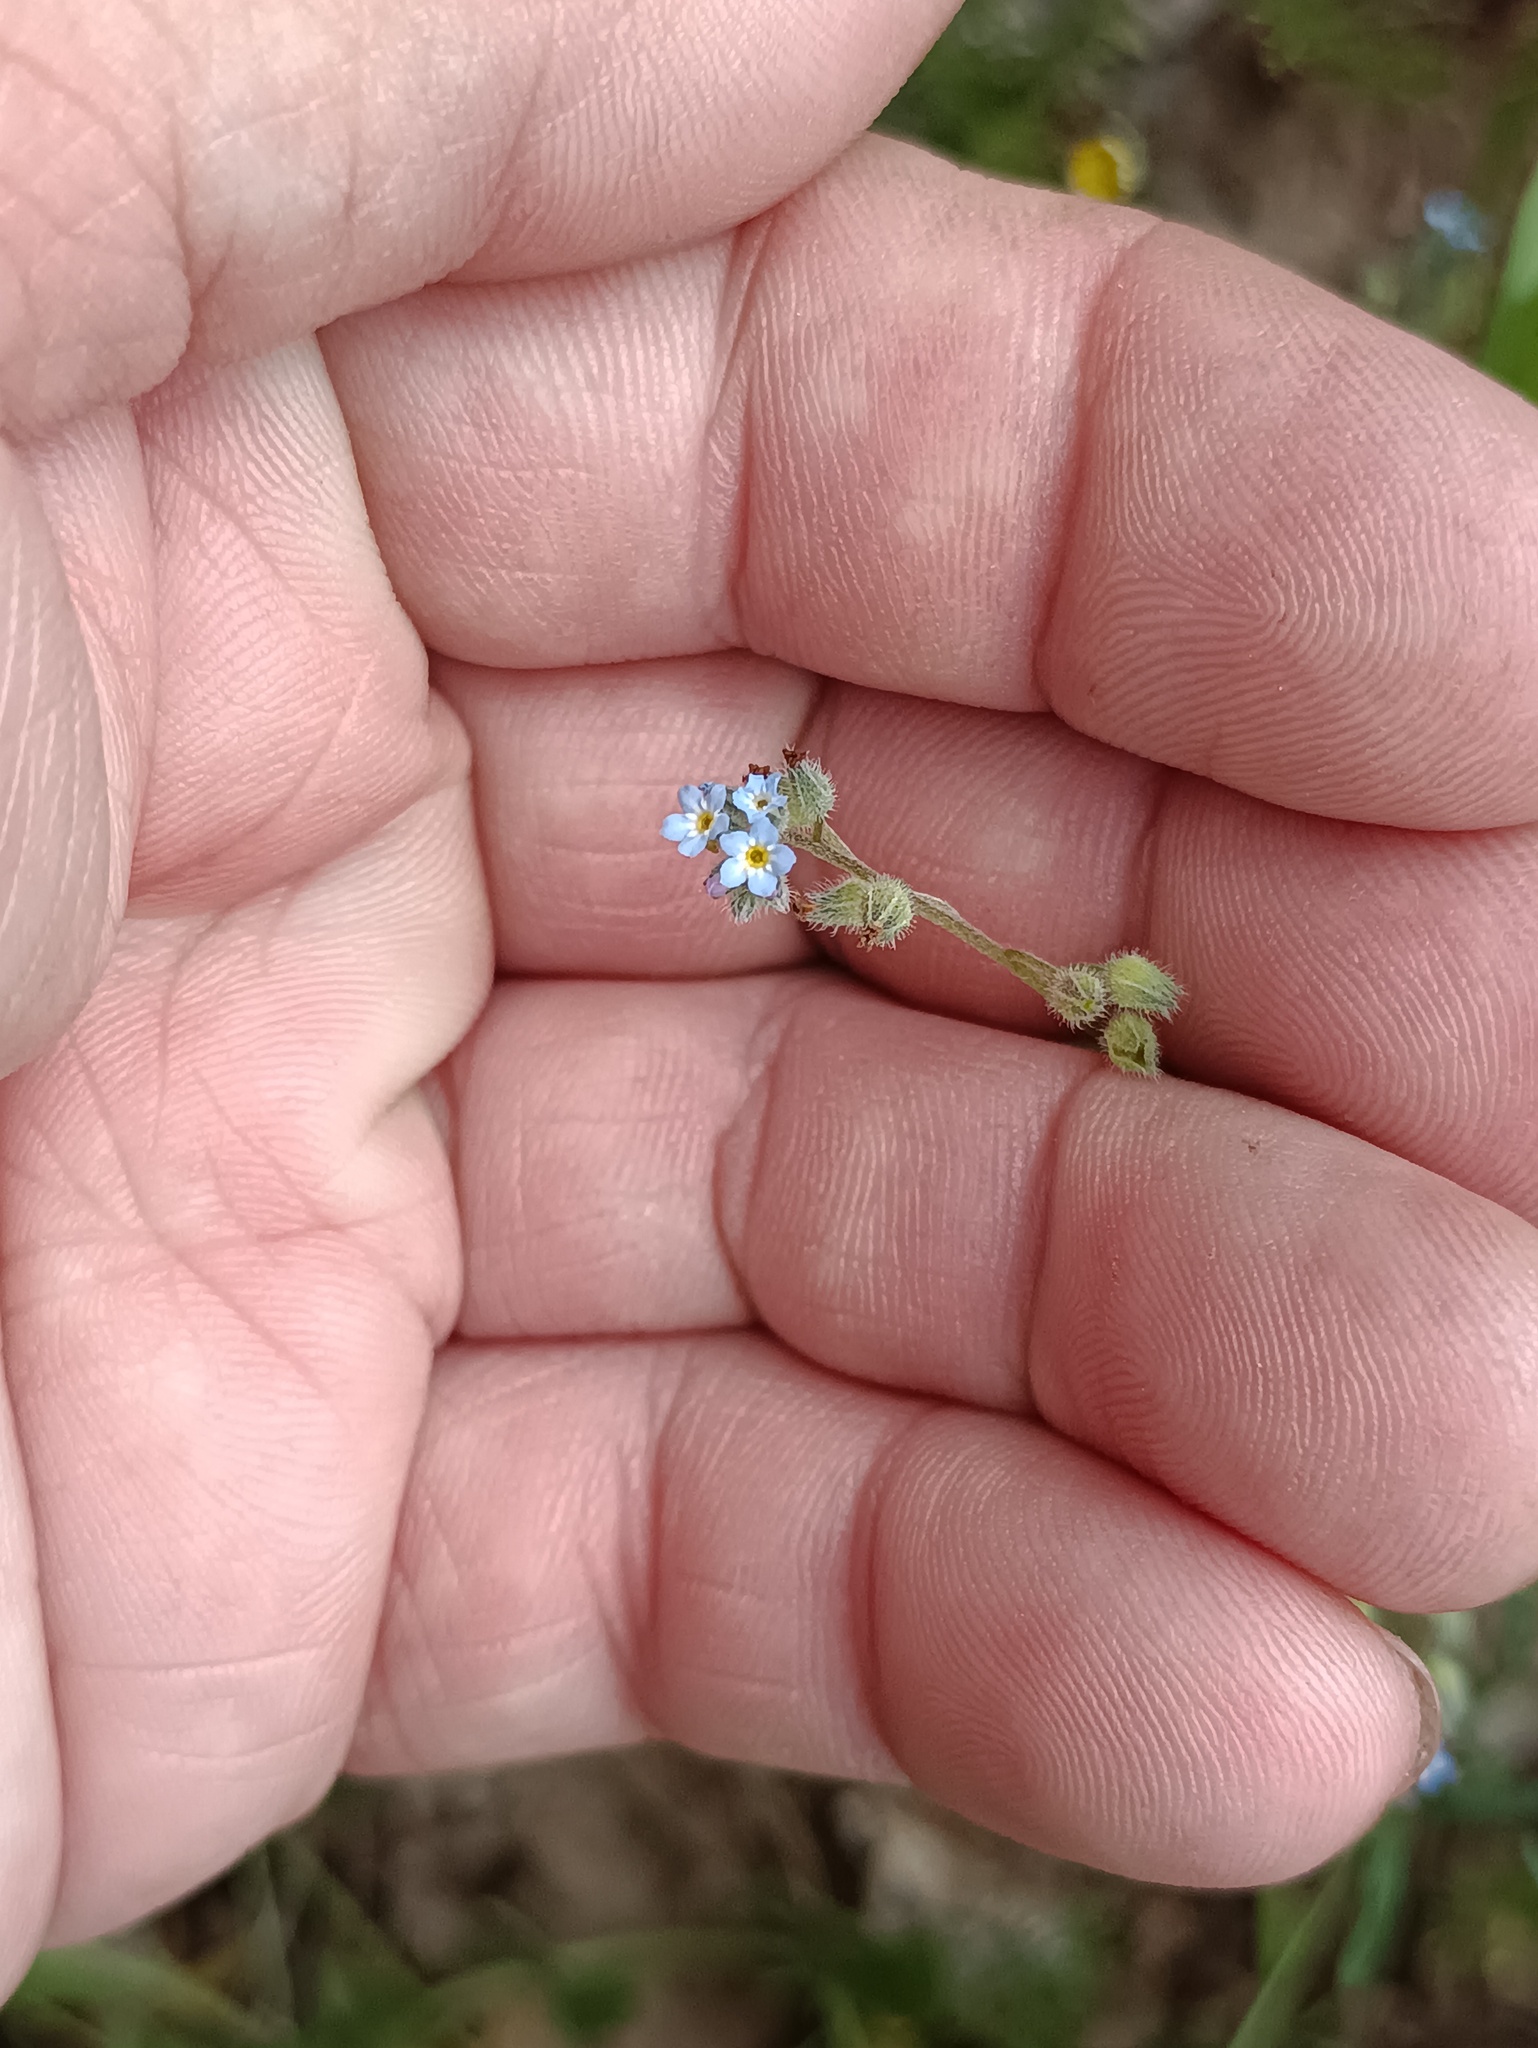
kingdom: Plantae
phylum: Tracheophyta
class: Magnoliopsida
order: Boraginales
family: Boraginaceae
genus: Myosotis
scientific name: Myosotis arvensis
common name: Field forget-me-not
